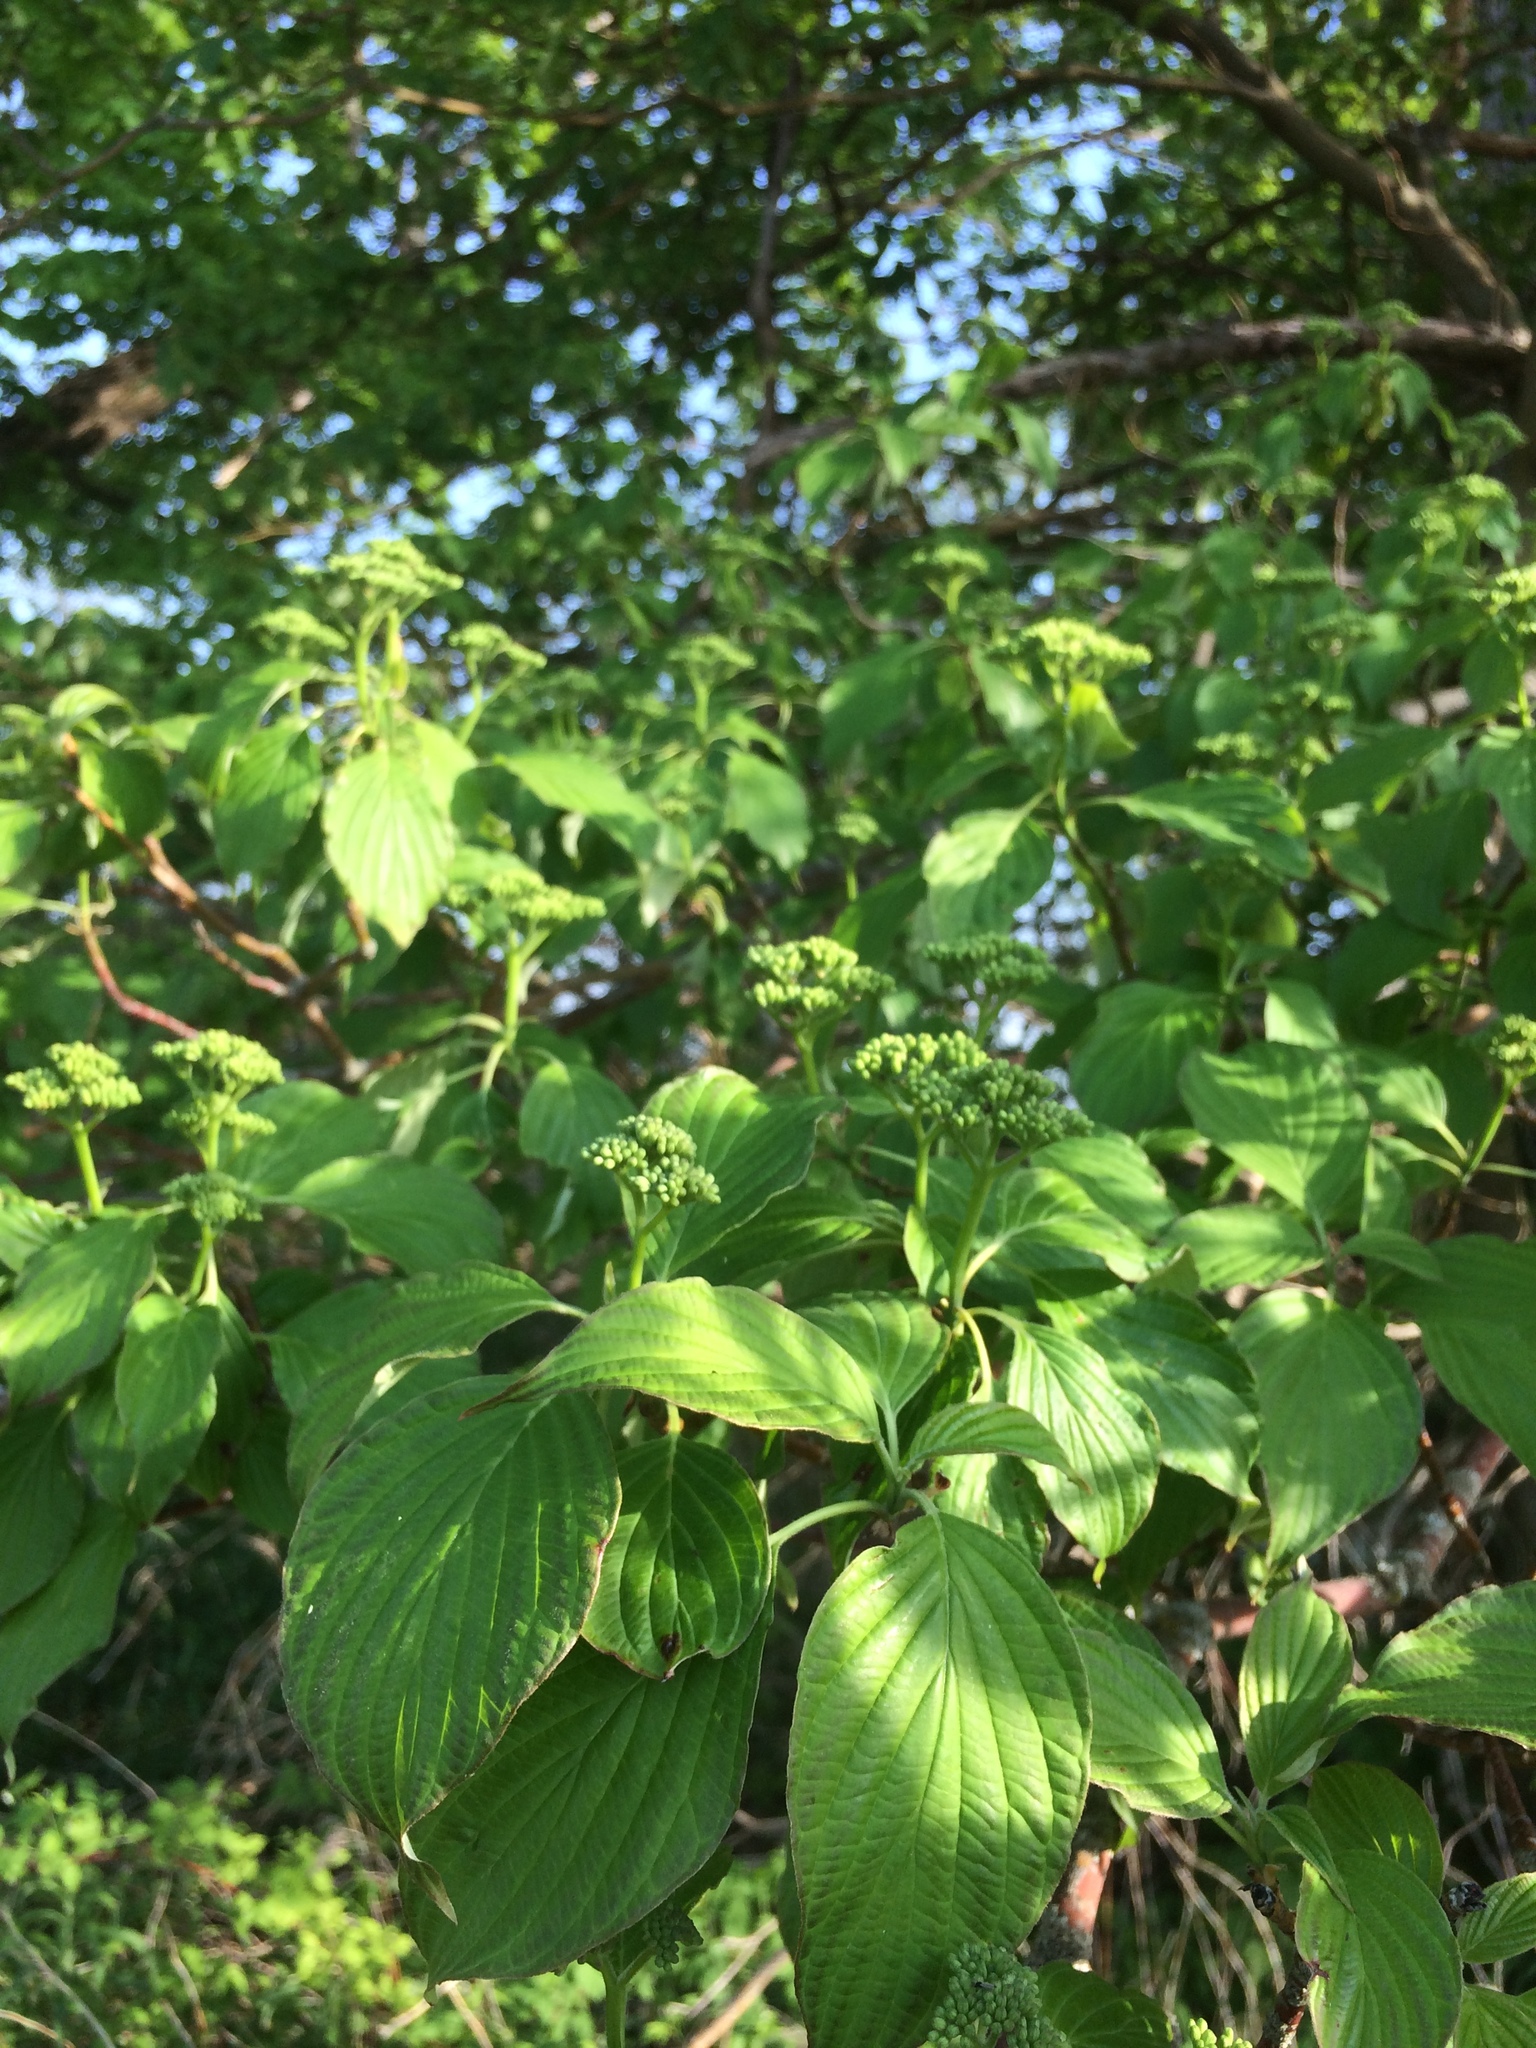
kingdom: Plantae
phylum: Tracheophyta
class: Magnoliopsida
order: Cornales
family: Cornaceae
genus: Cornus
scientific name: Cornus alternifolia
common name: Pagoda dogwood
